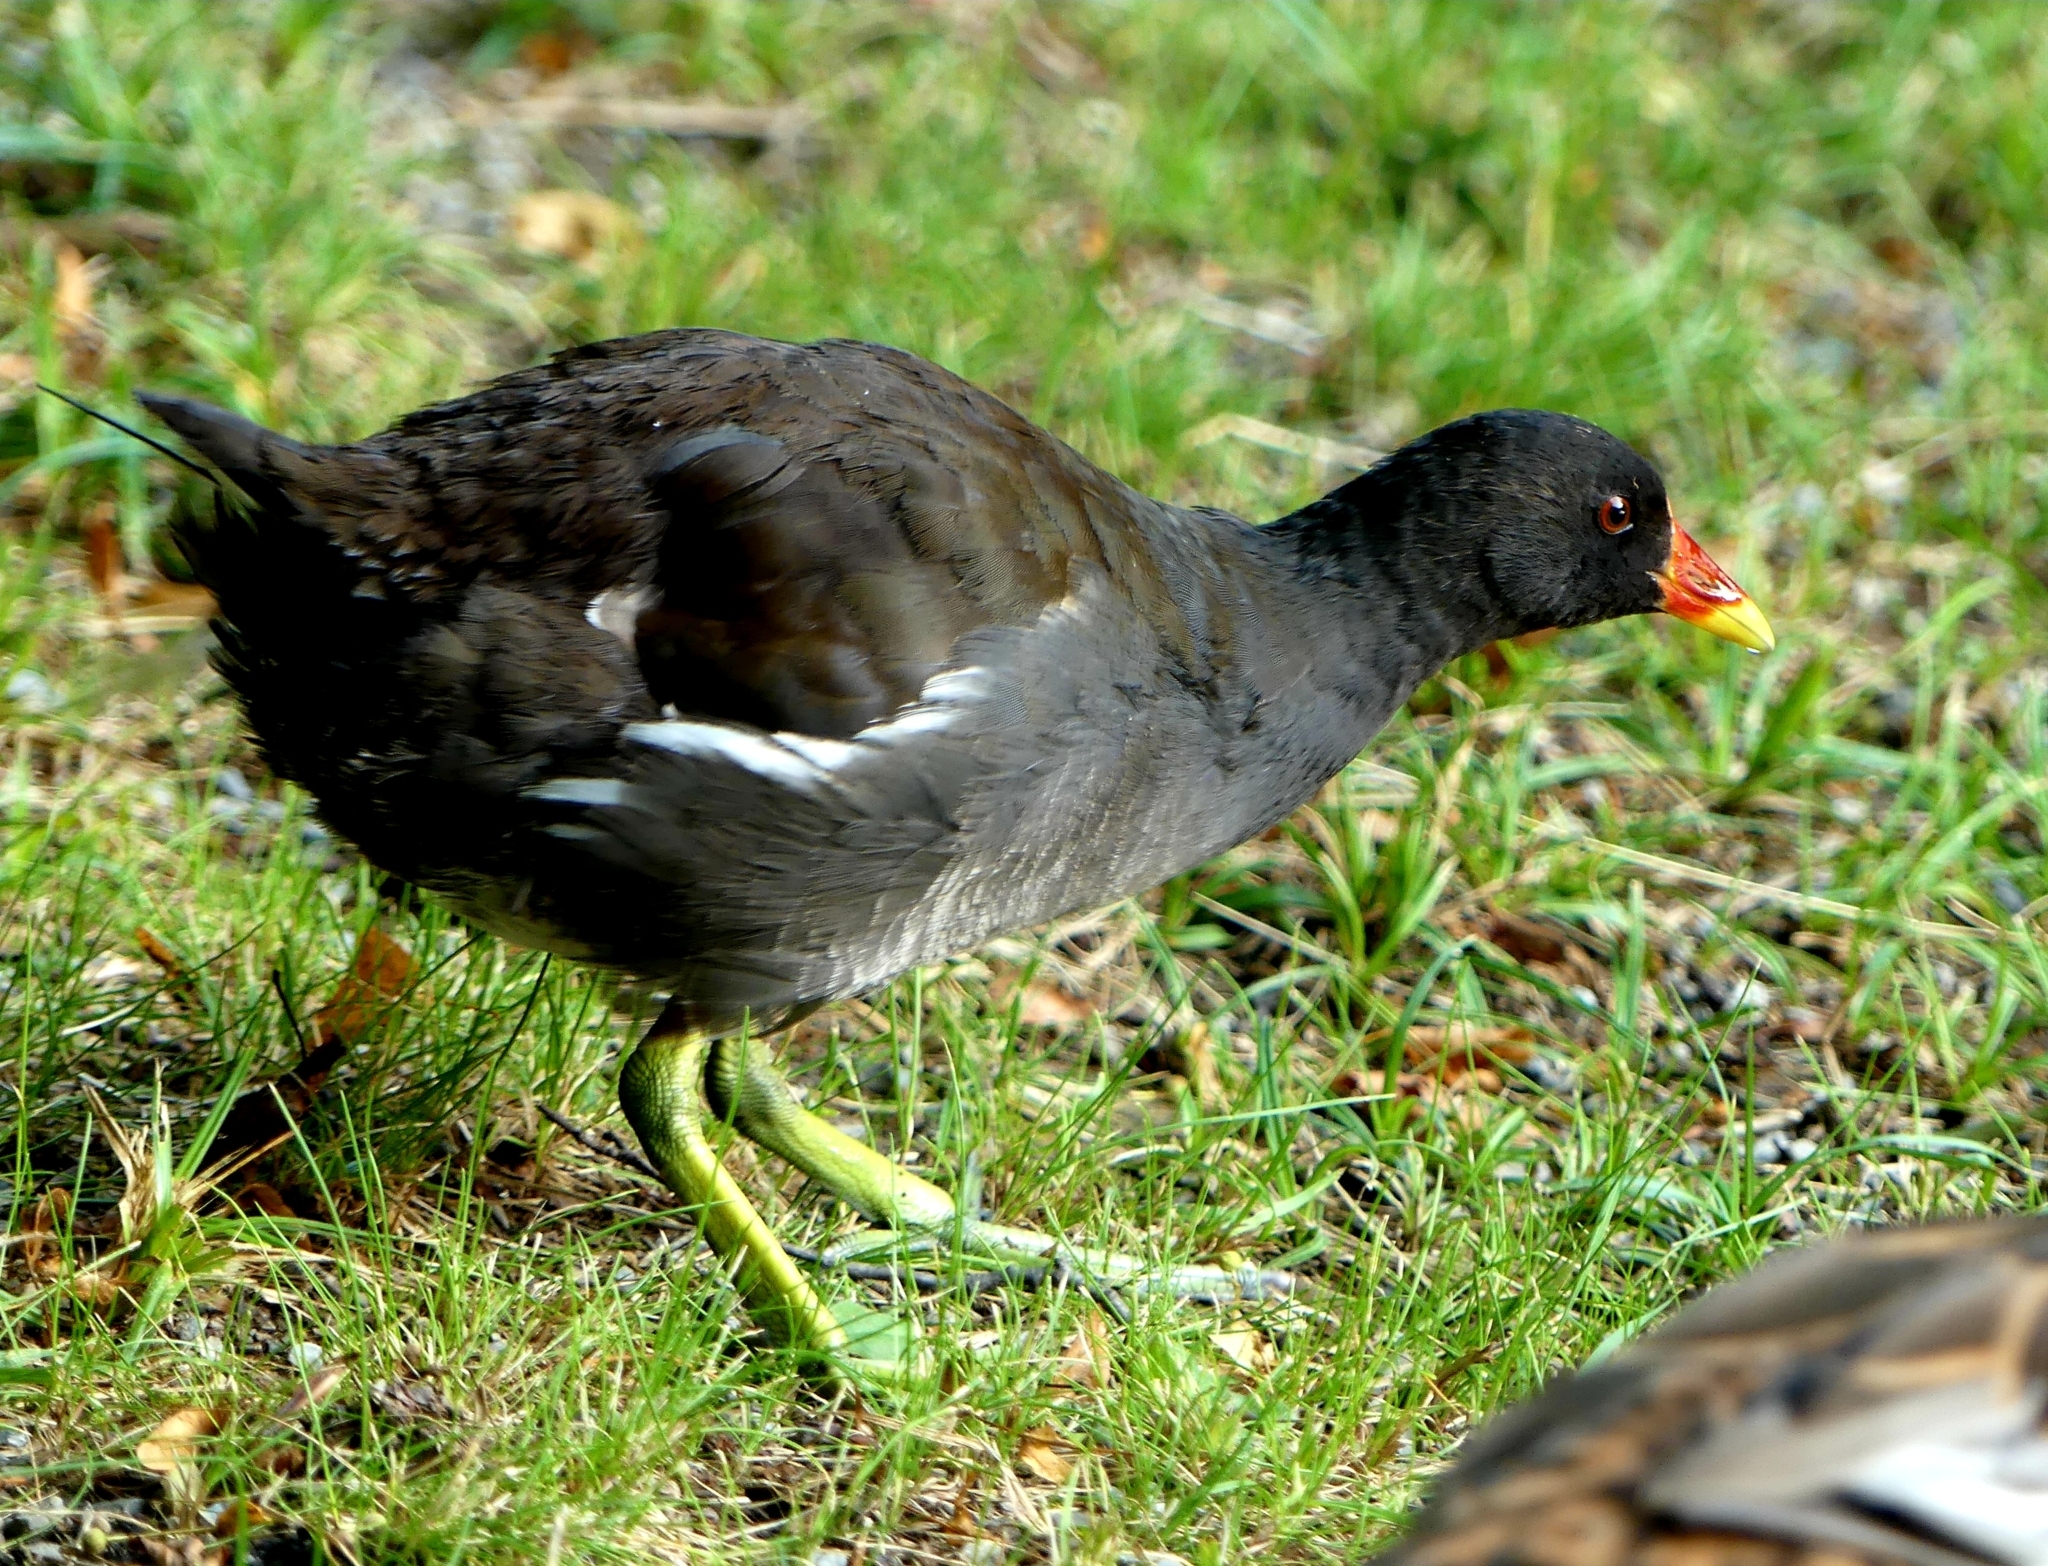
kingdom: Animalia
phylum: Chordata
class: Aves
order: Gruiformes
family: Rallidae
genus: Gallinula
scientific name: Gallinula chloropus
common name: Common moorhen
